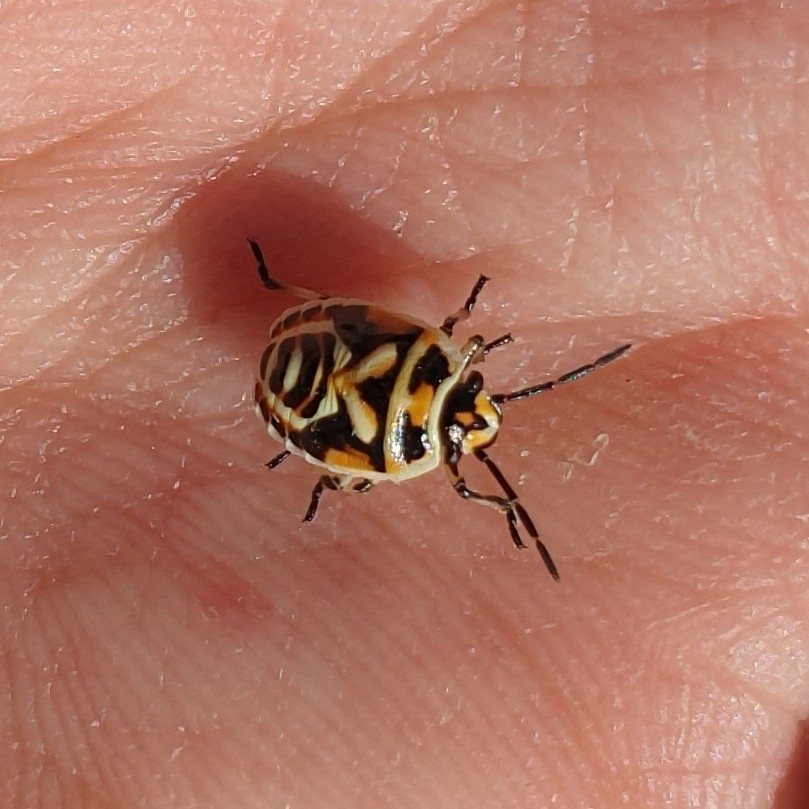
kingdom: Animalia
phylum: Arthropoda
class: Insecta
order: Hemiptera
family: Pentatomidae
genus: Eurydema
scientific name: Eurydema ornata
